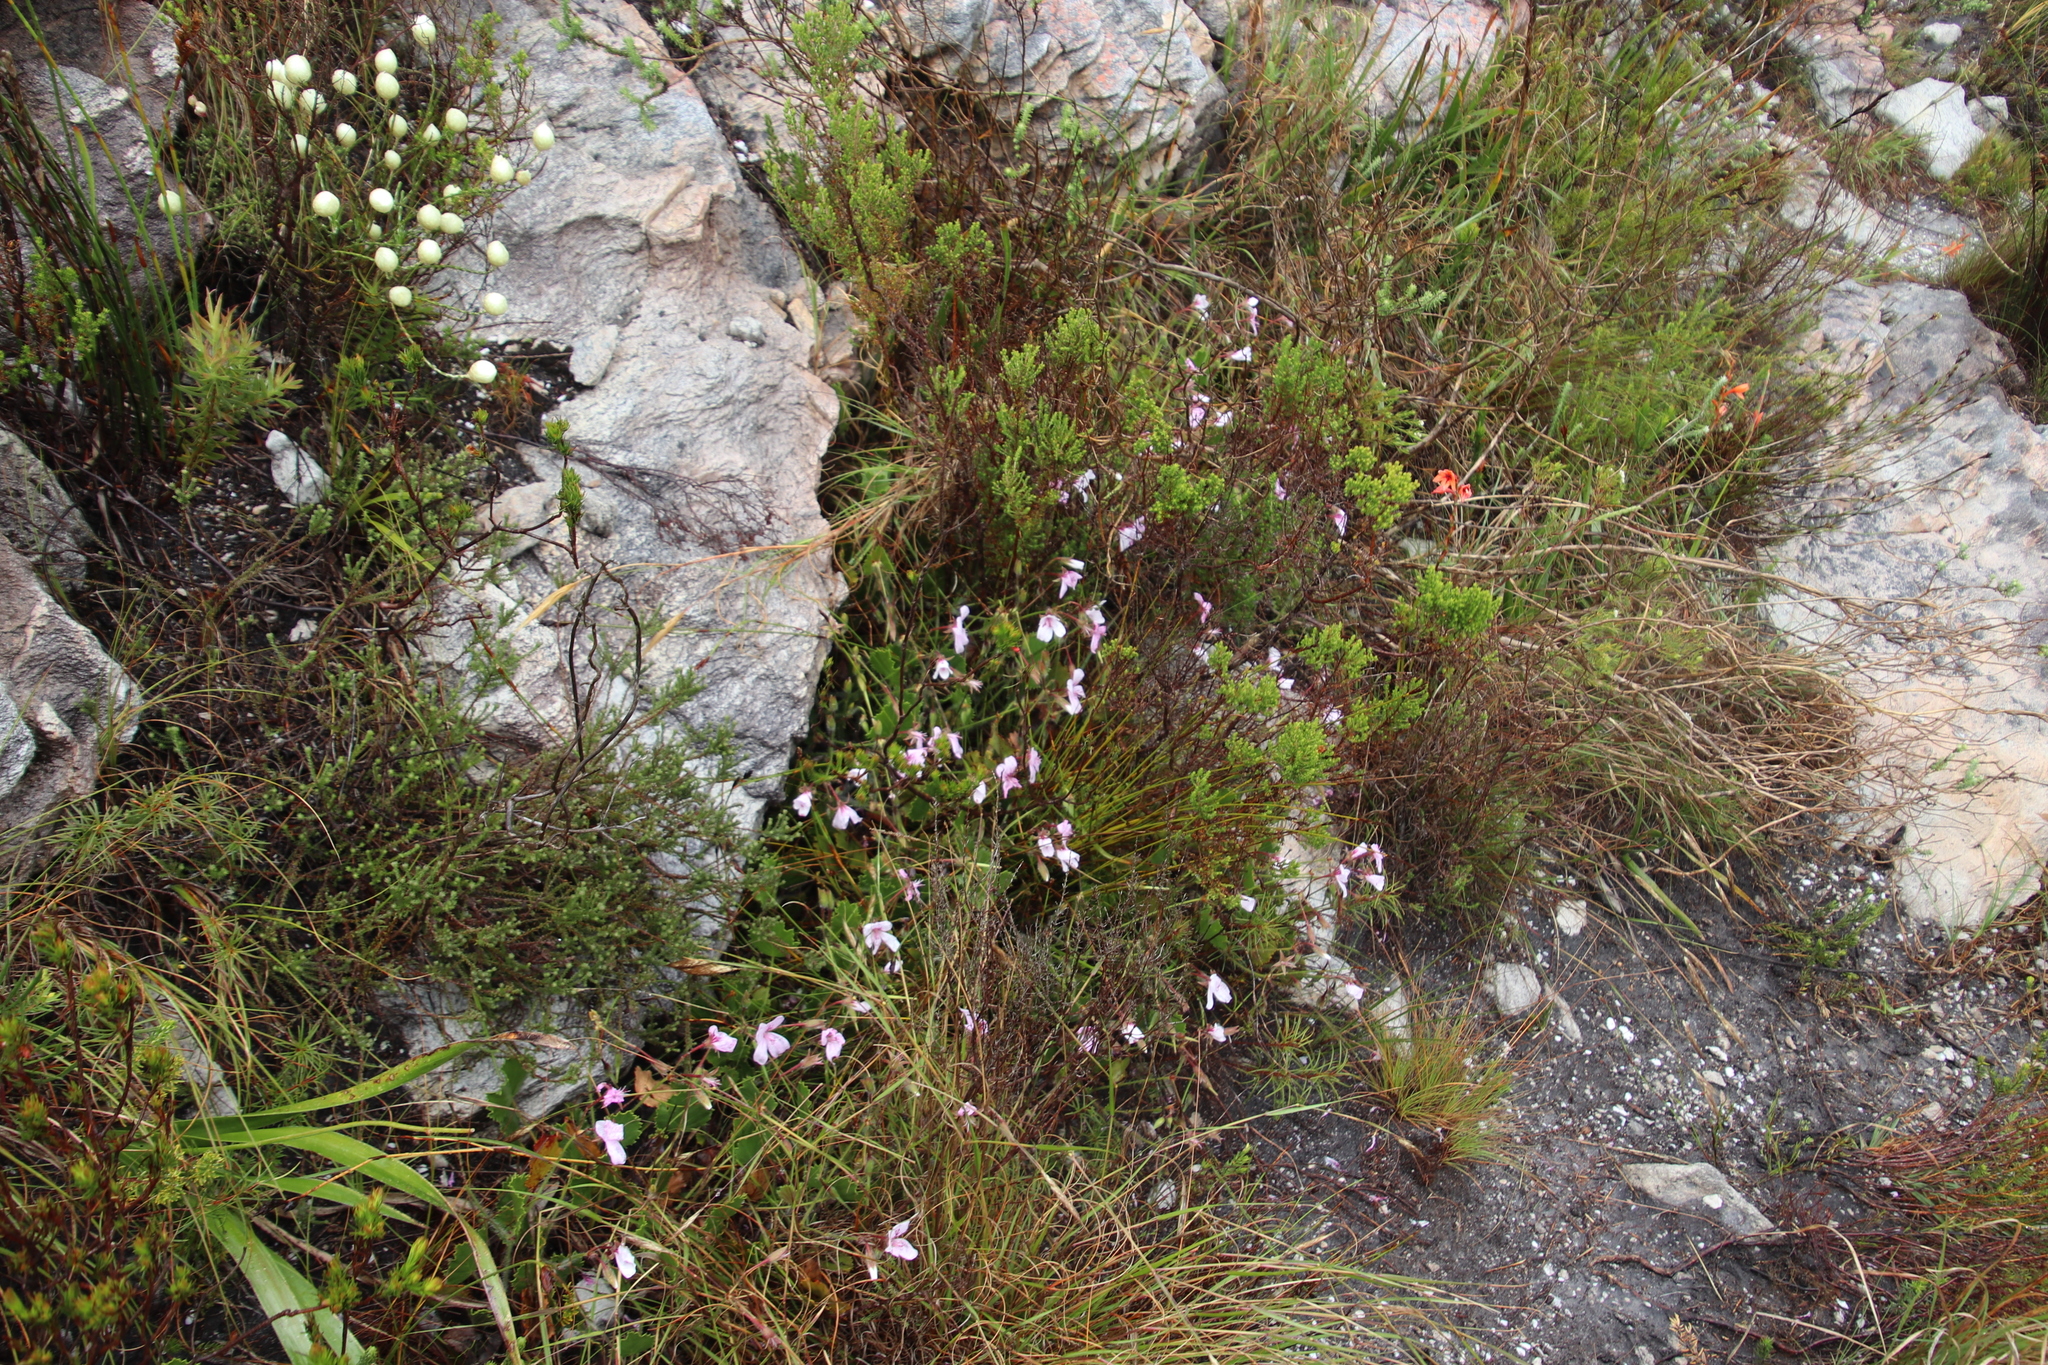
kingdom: Plantae
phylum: Tracheophyta
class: Magnoliopsida
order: Geraniales
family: Geraniaceae
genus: Pelargonium
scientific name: Pelargonium elegans
